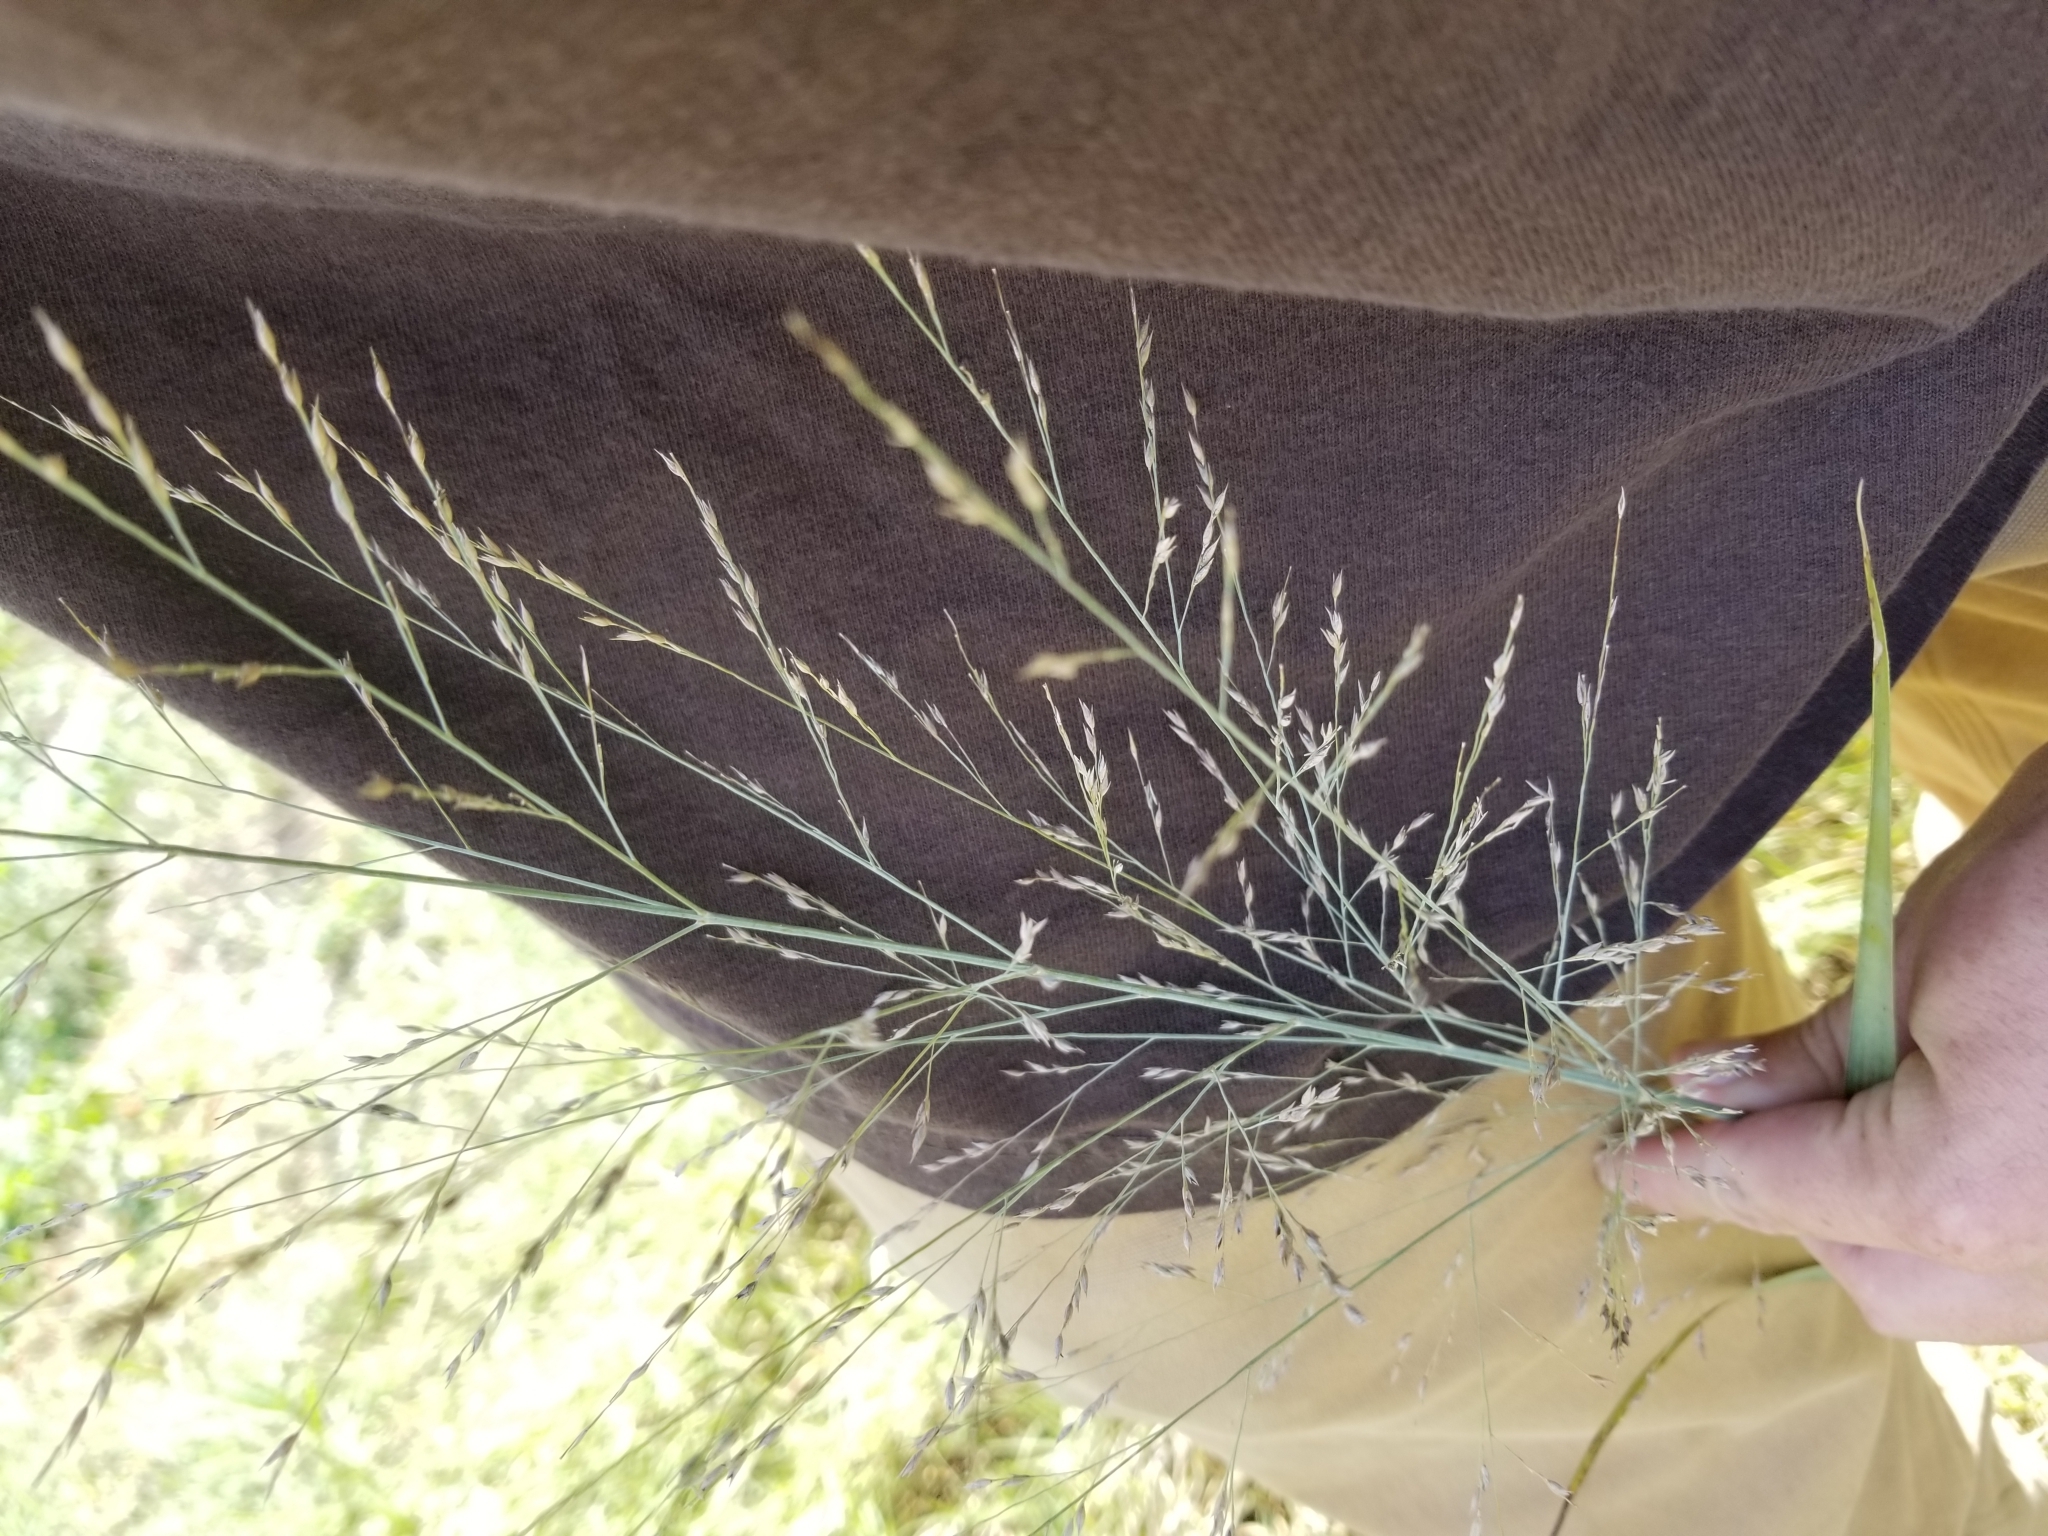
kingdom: Plantae
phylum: Tracheophyta
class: Liliopsida
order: Poales
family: Poaceae
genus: Panicum
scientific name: Panicum virgatum
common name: Switchgrass
